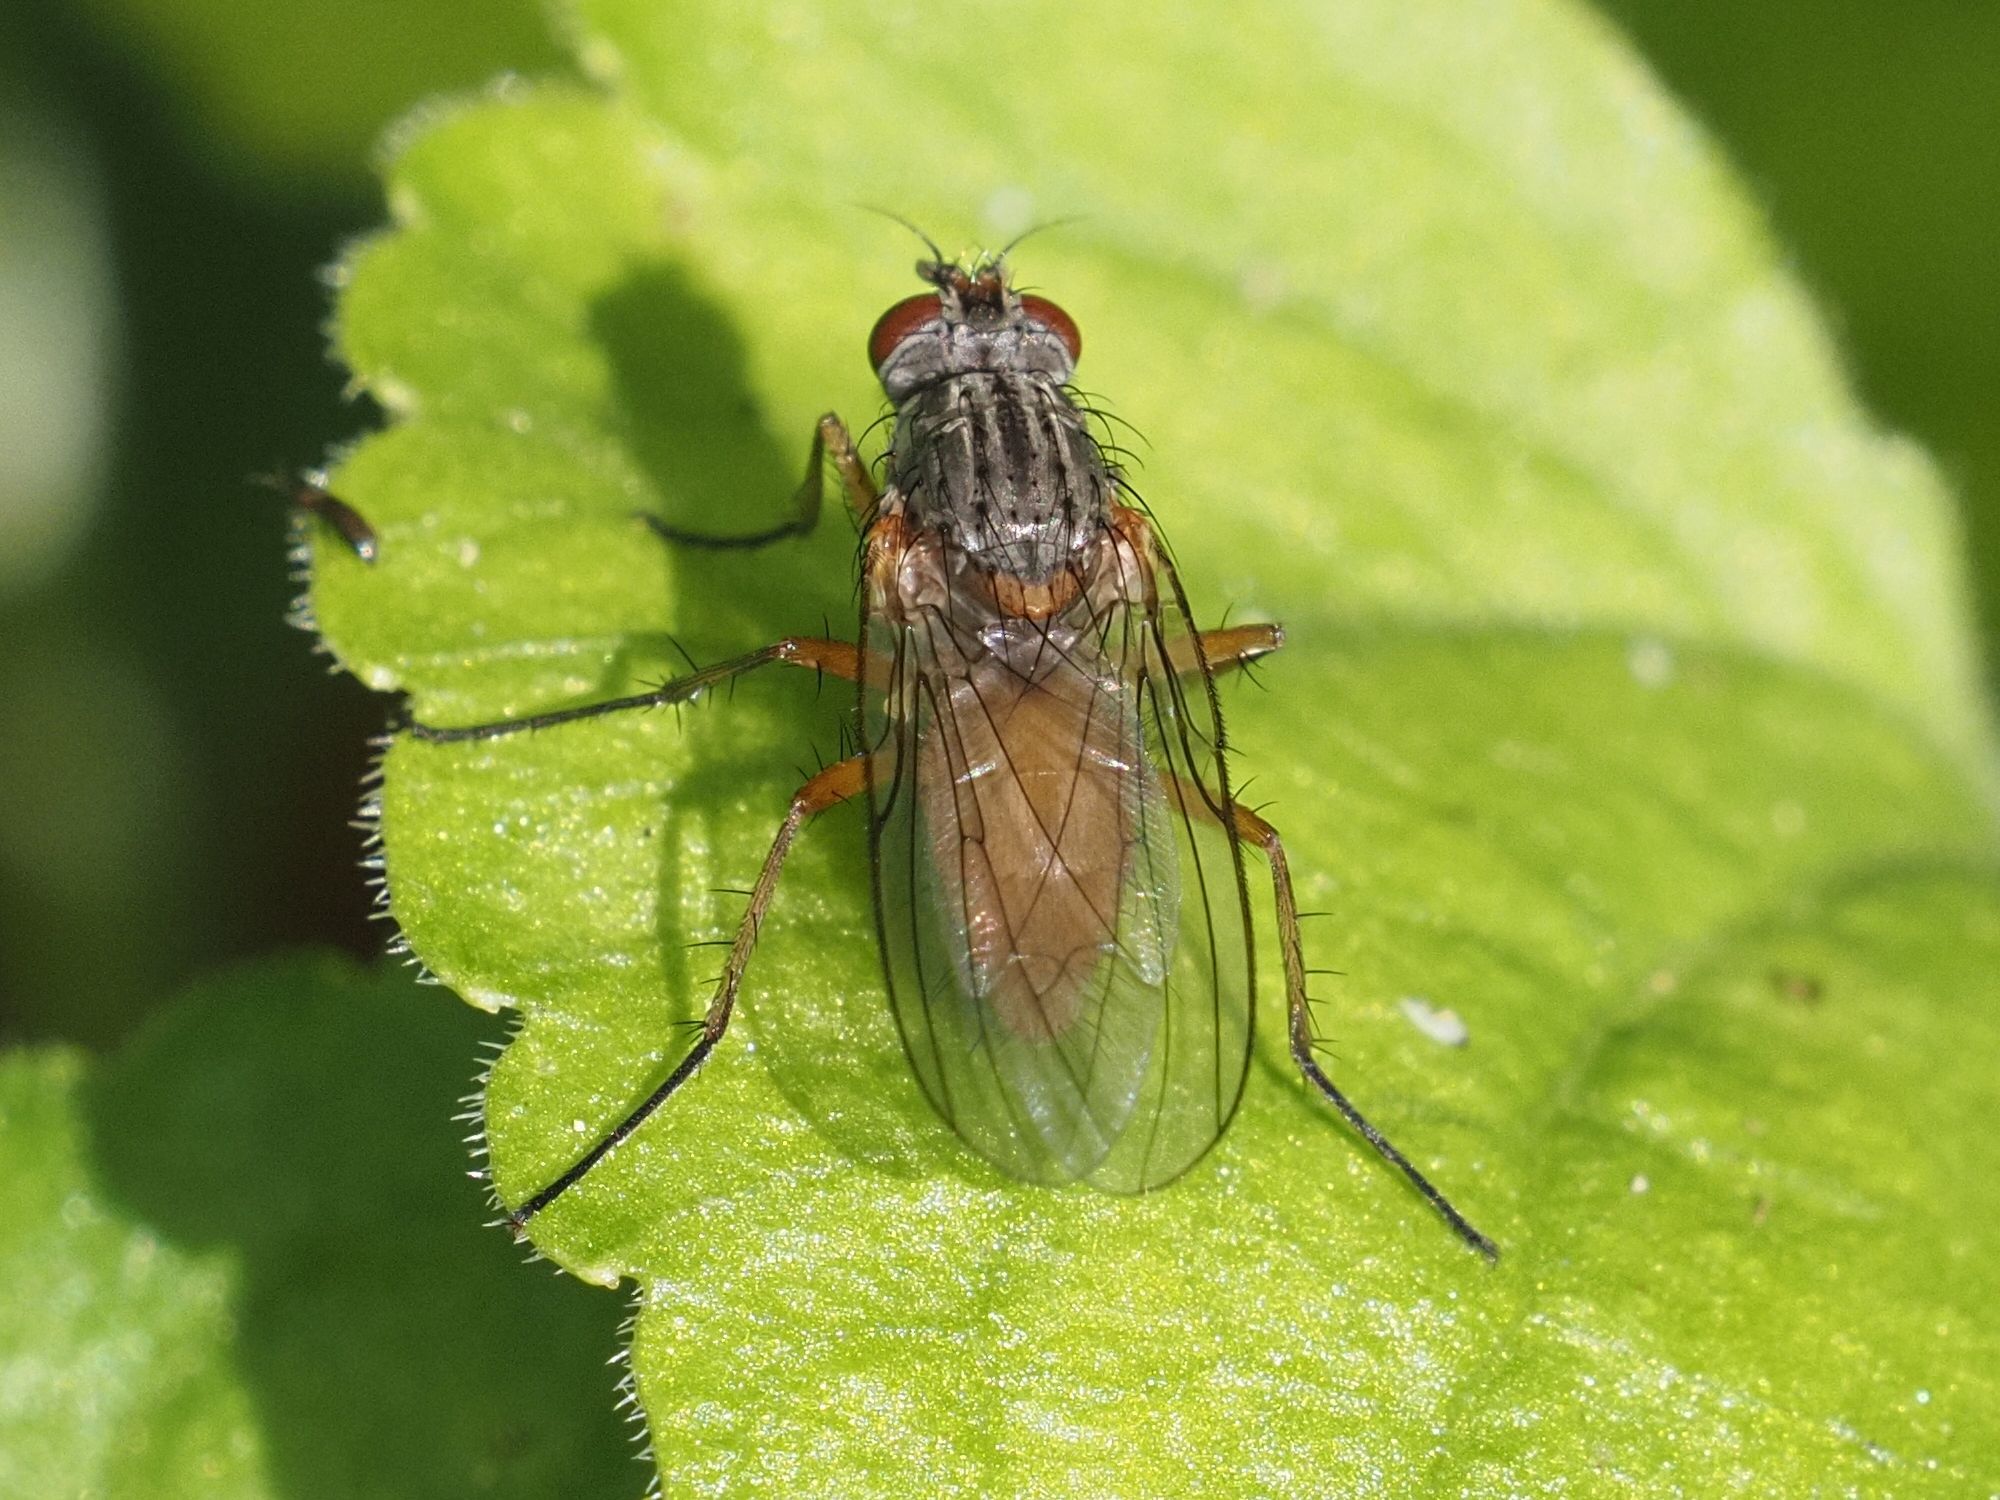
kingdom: Animalia
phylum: Arthropoda
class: Insecta
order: Diptera
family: Anthomyiidae
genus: Mycophaga
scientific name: Mycophaga testacea
